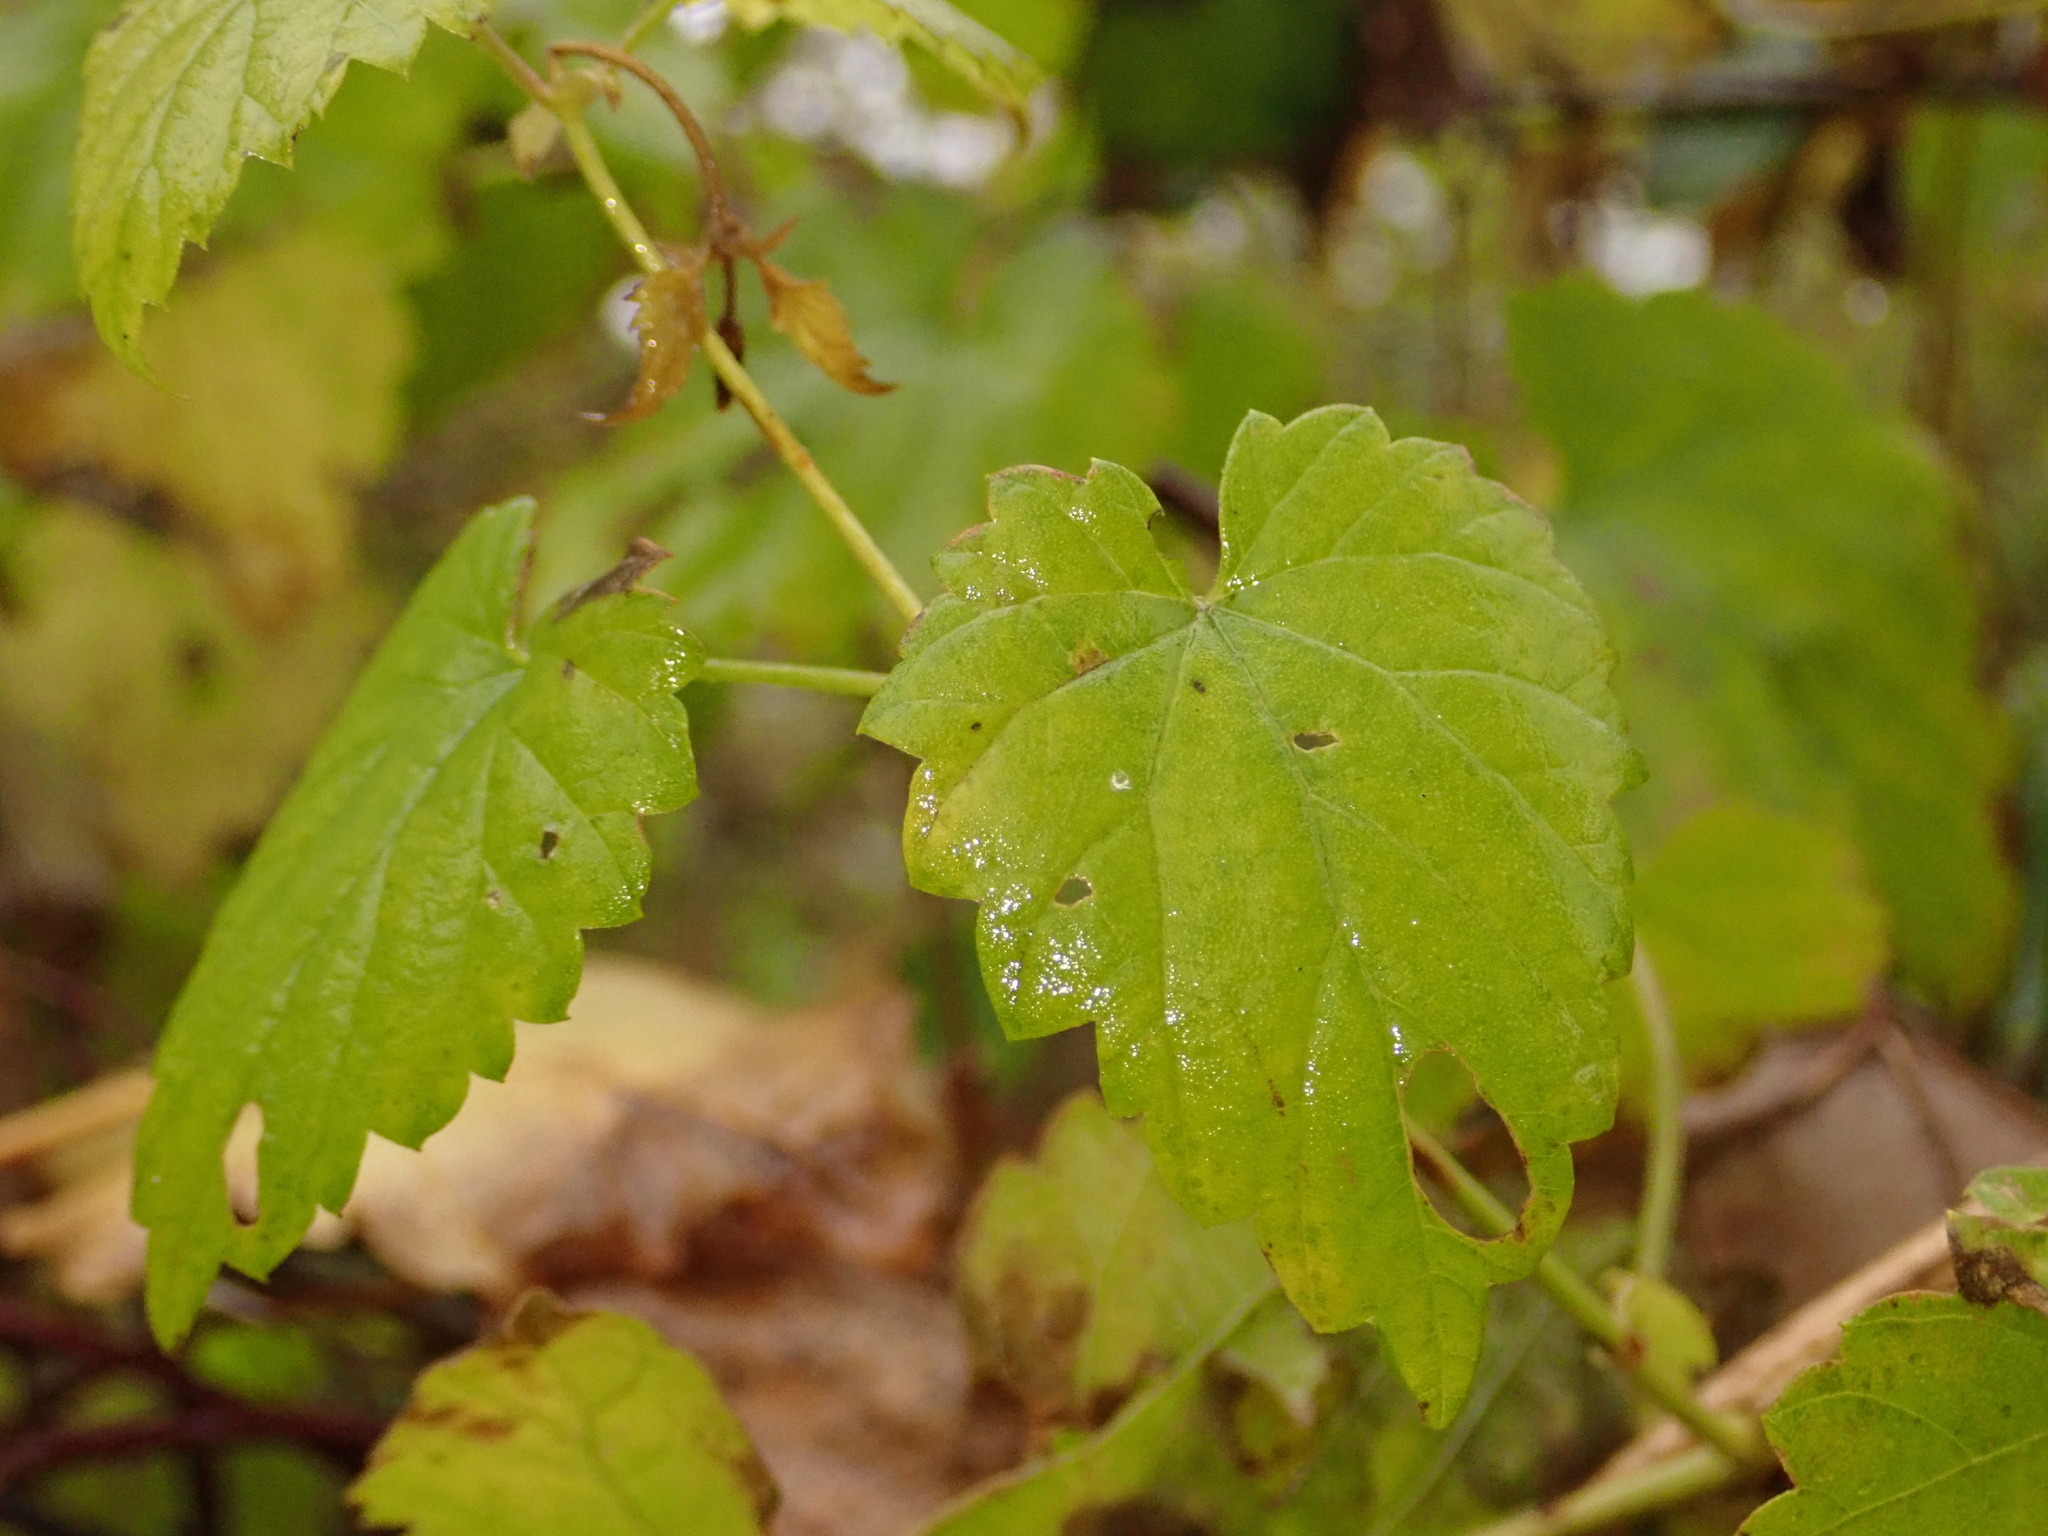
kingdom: Plantae
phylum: Tracheophyta
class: Magnoliopsida
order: Rosales
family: Cannabaceae
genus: Humulus
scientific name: Humulus lupulus
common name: Hop
